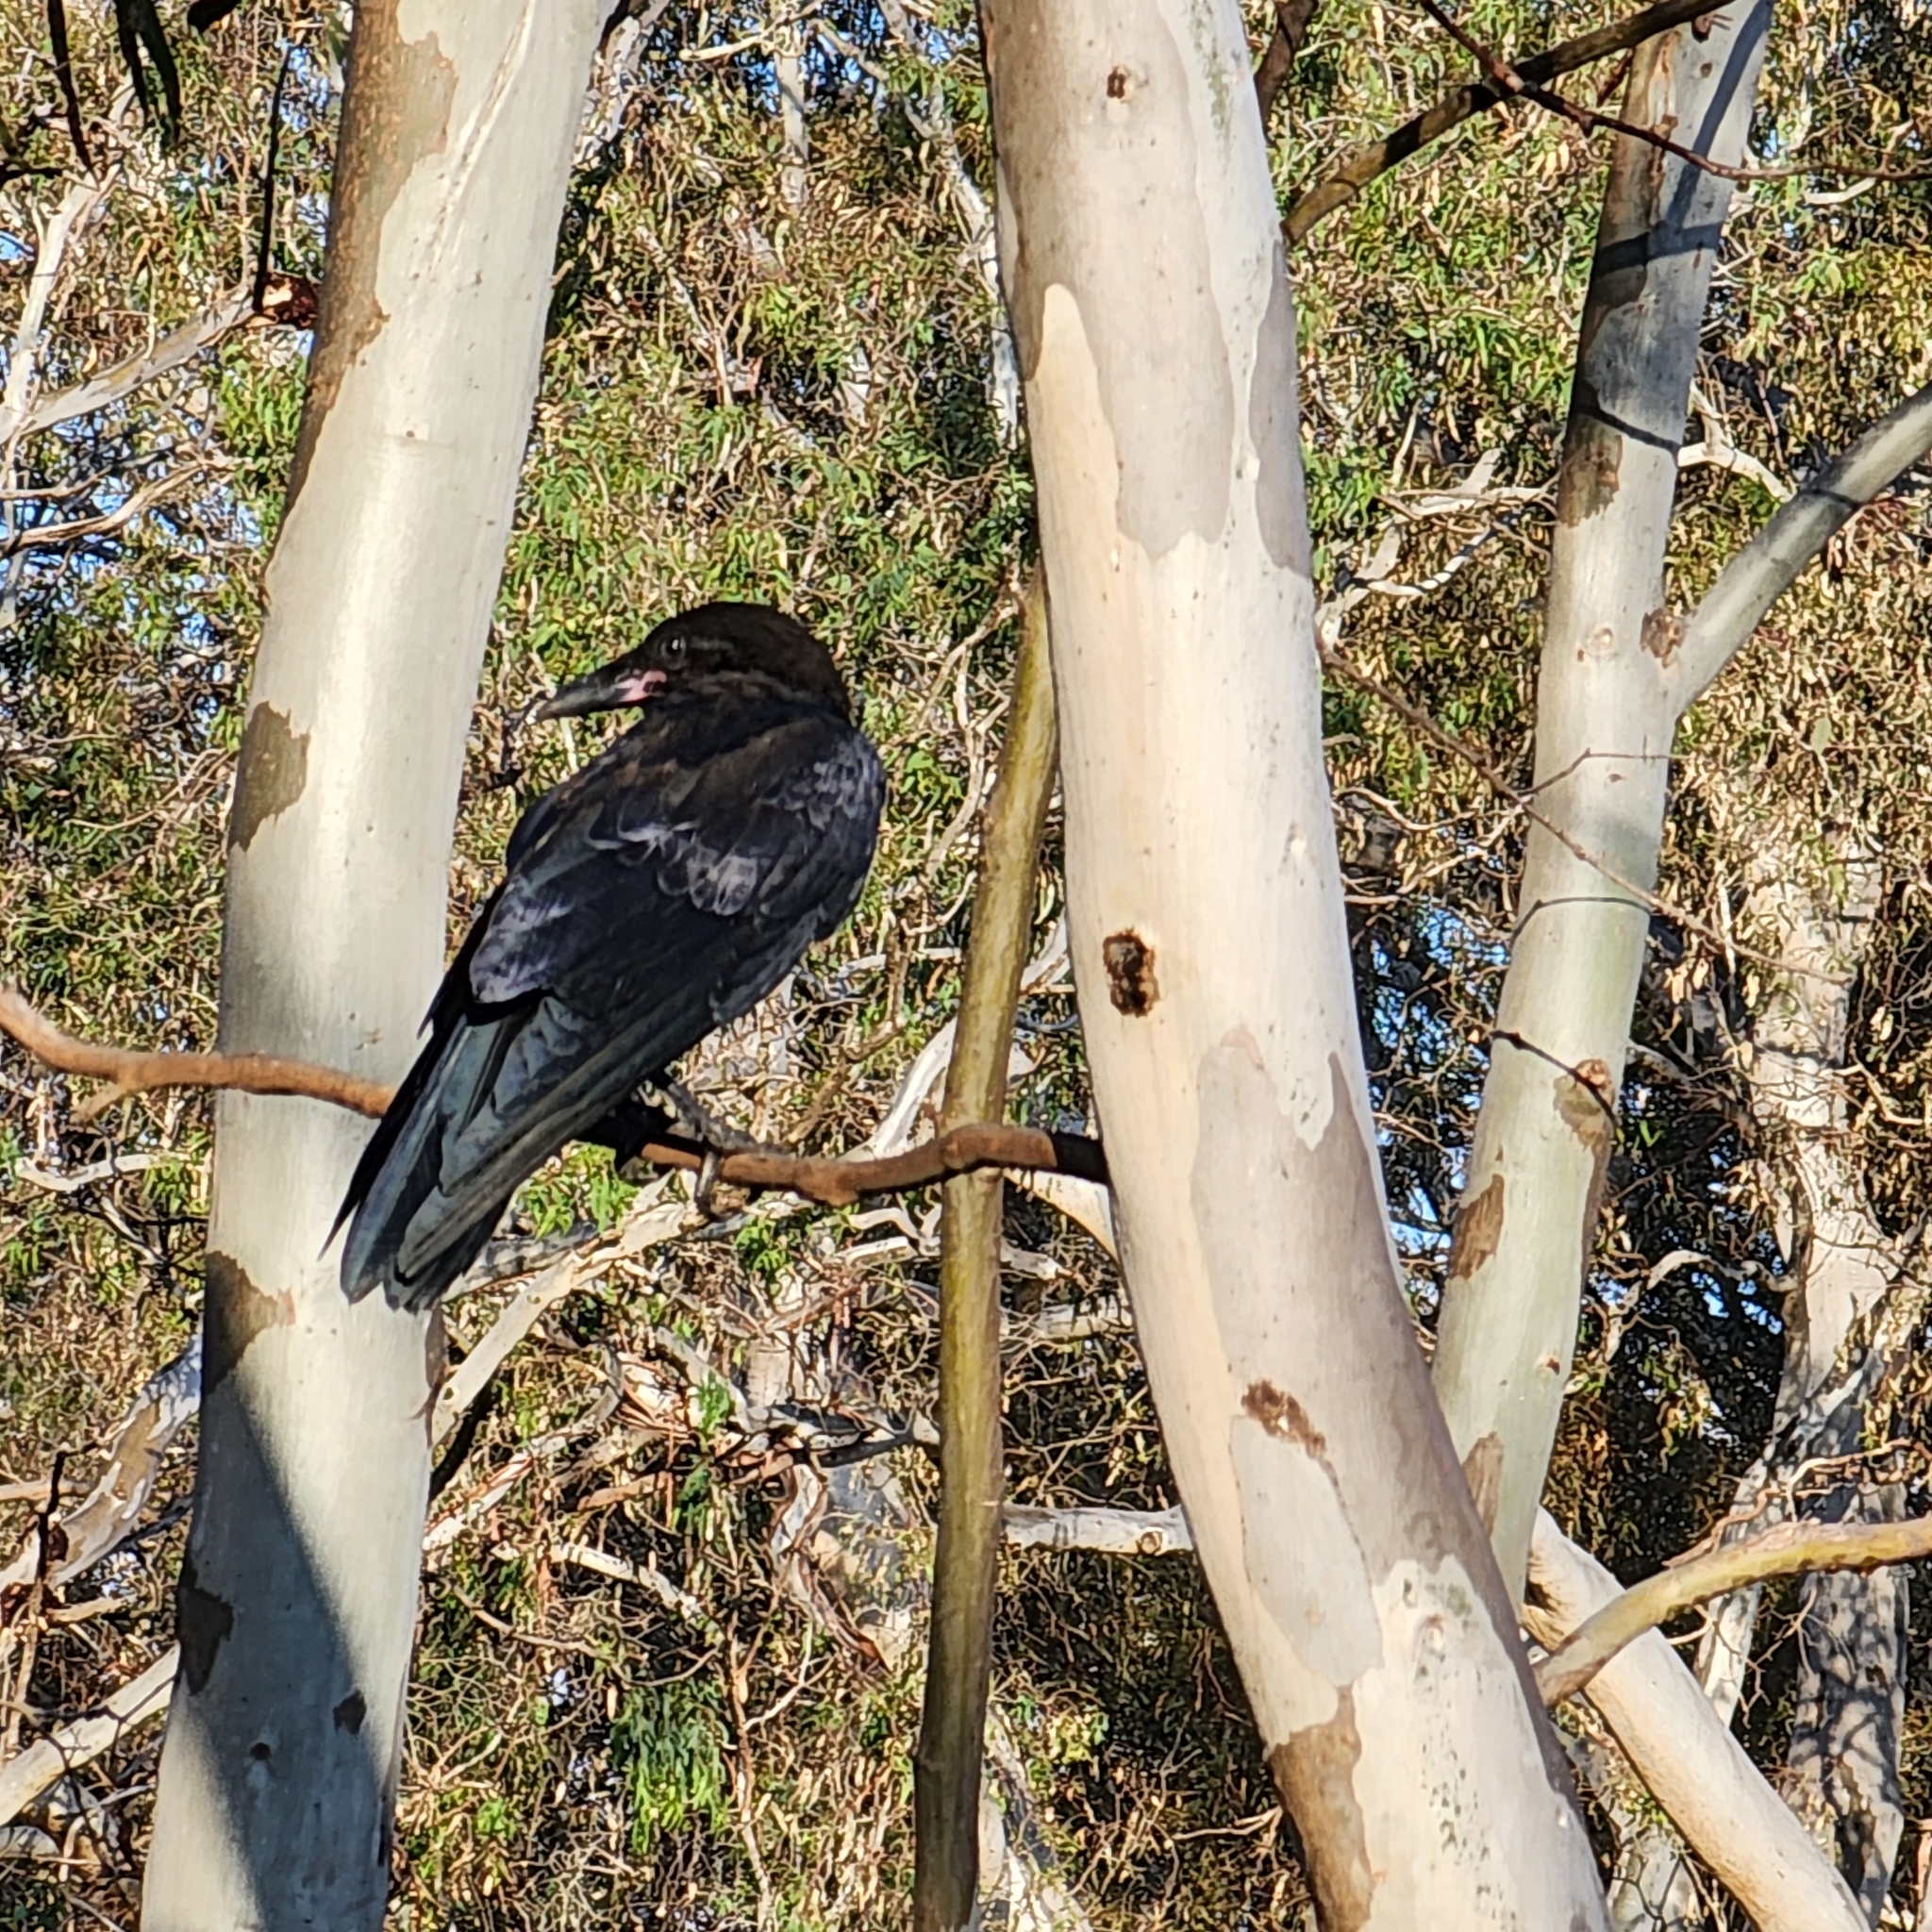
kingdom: Animalia
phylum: Chordata
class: Aves
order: Passeriformes
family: Corvidae
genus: Corvus
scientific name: Corvus mellori
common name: Little raven
